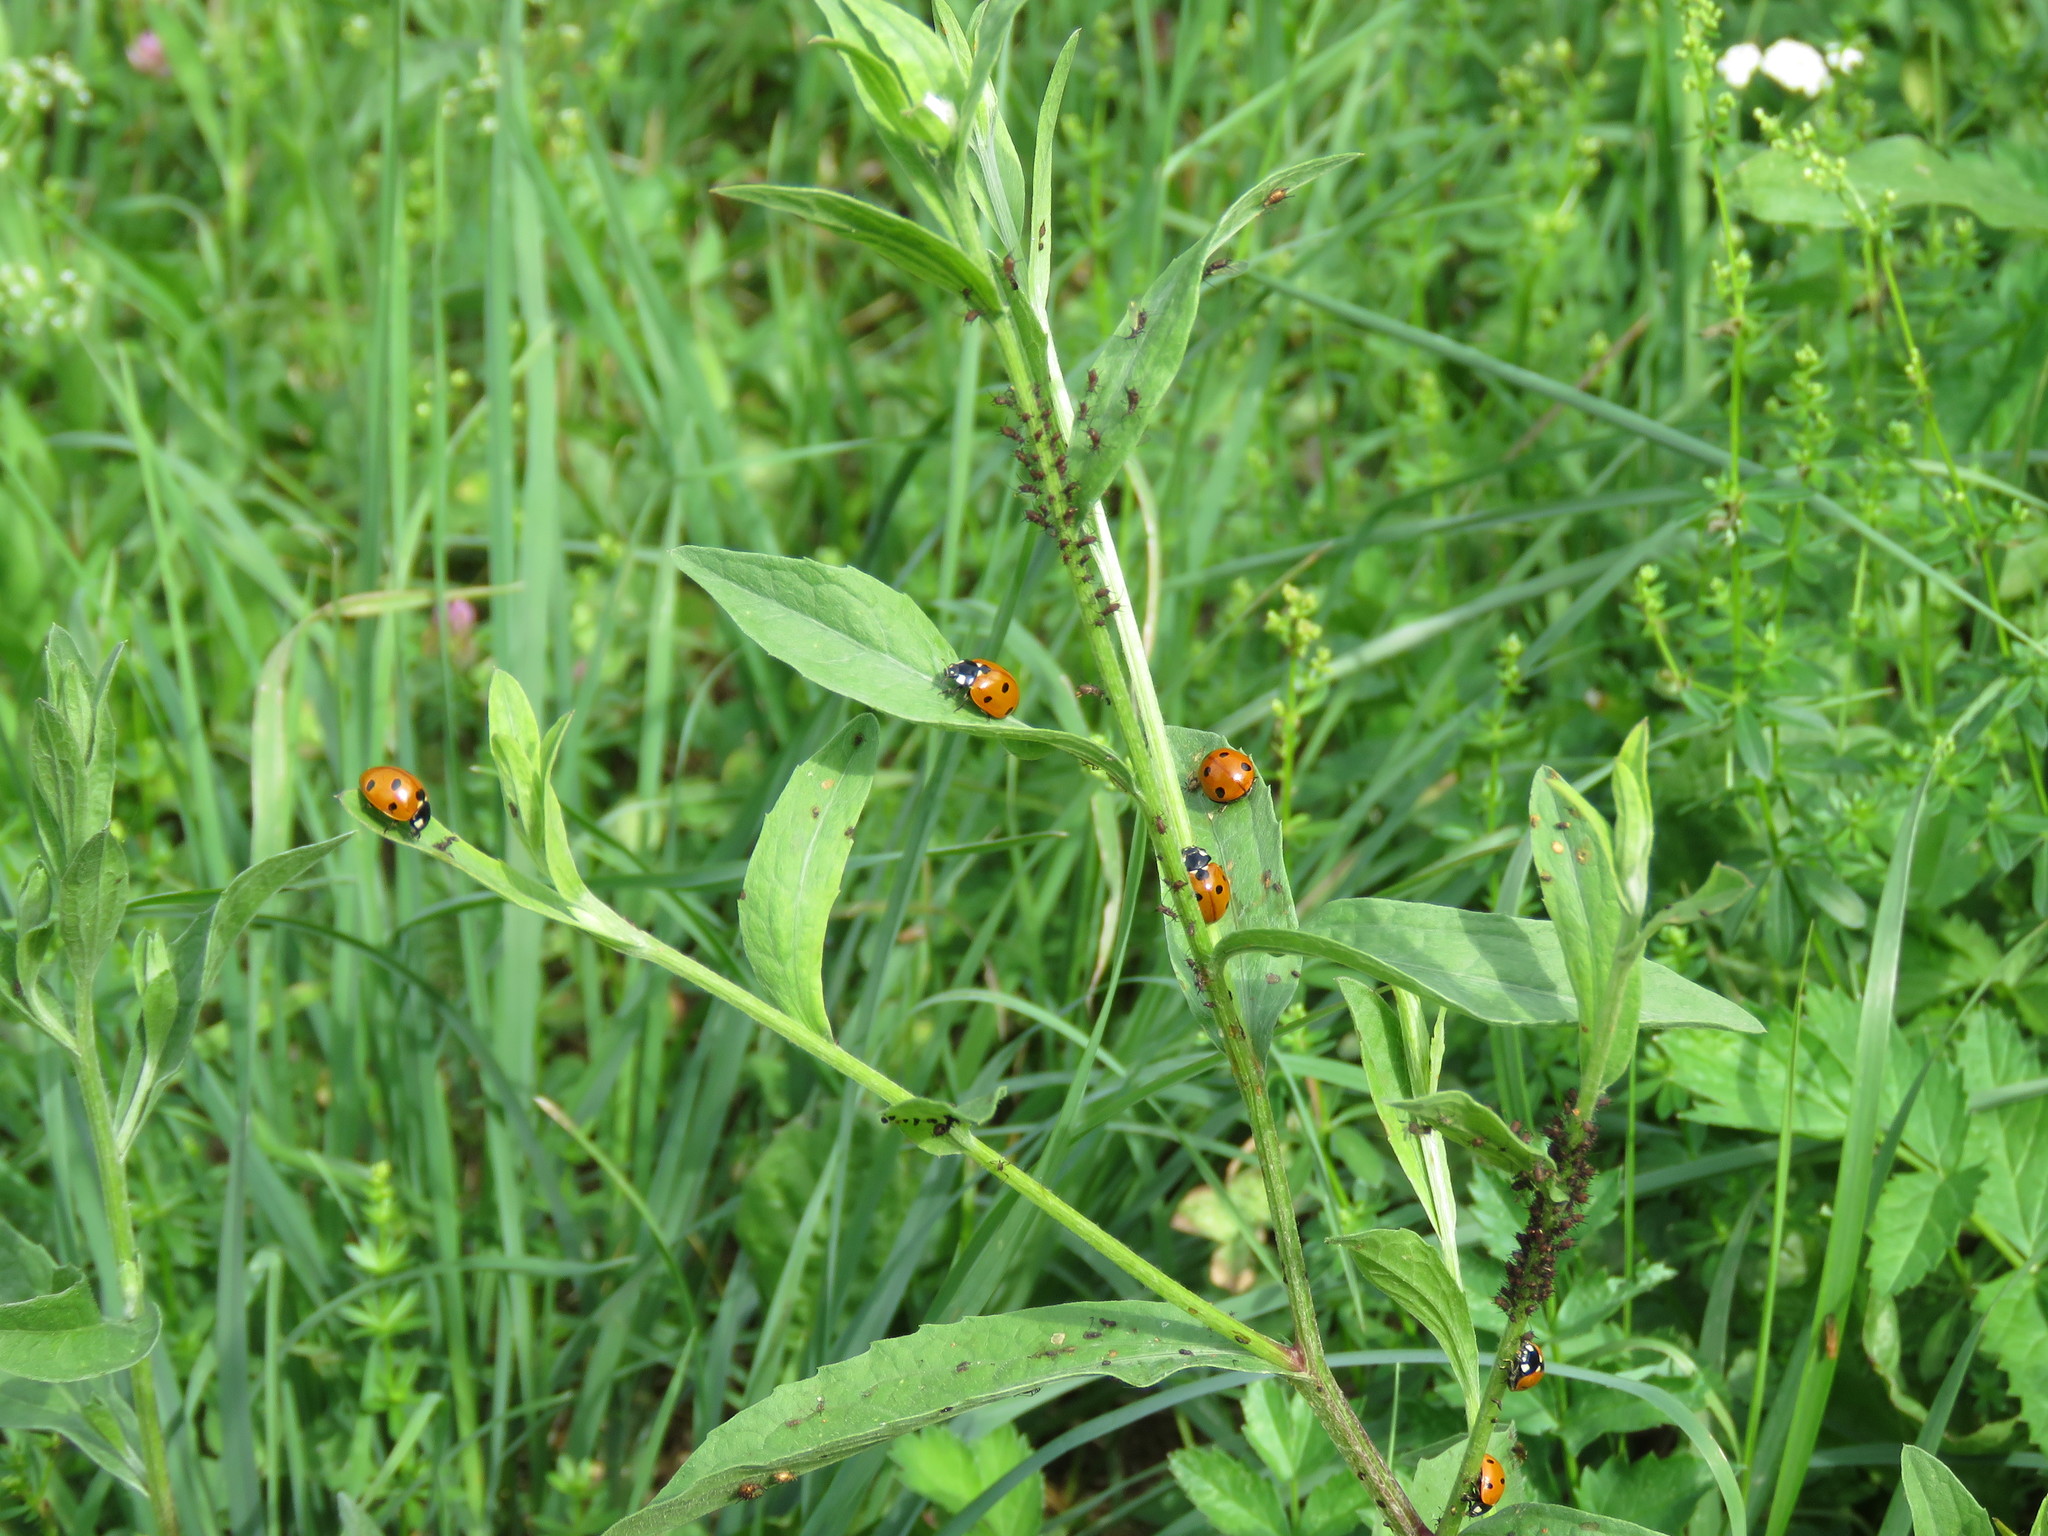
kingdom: Animalia
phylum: Arthropoda
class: Insecta
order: Coleoptera
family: Coccinellidae
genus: Coccinella
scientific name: Coccinella septempunctata
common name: Sevenspotted lady beetle
